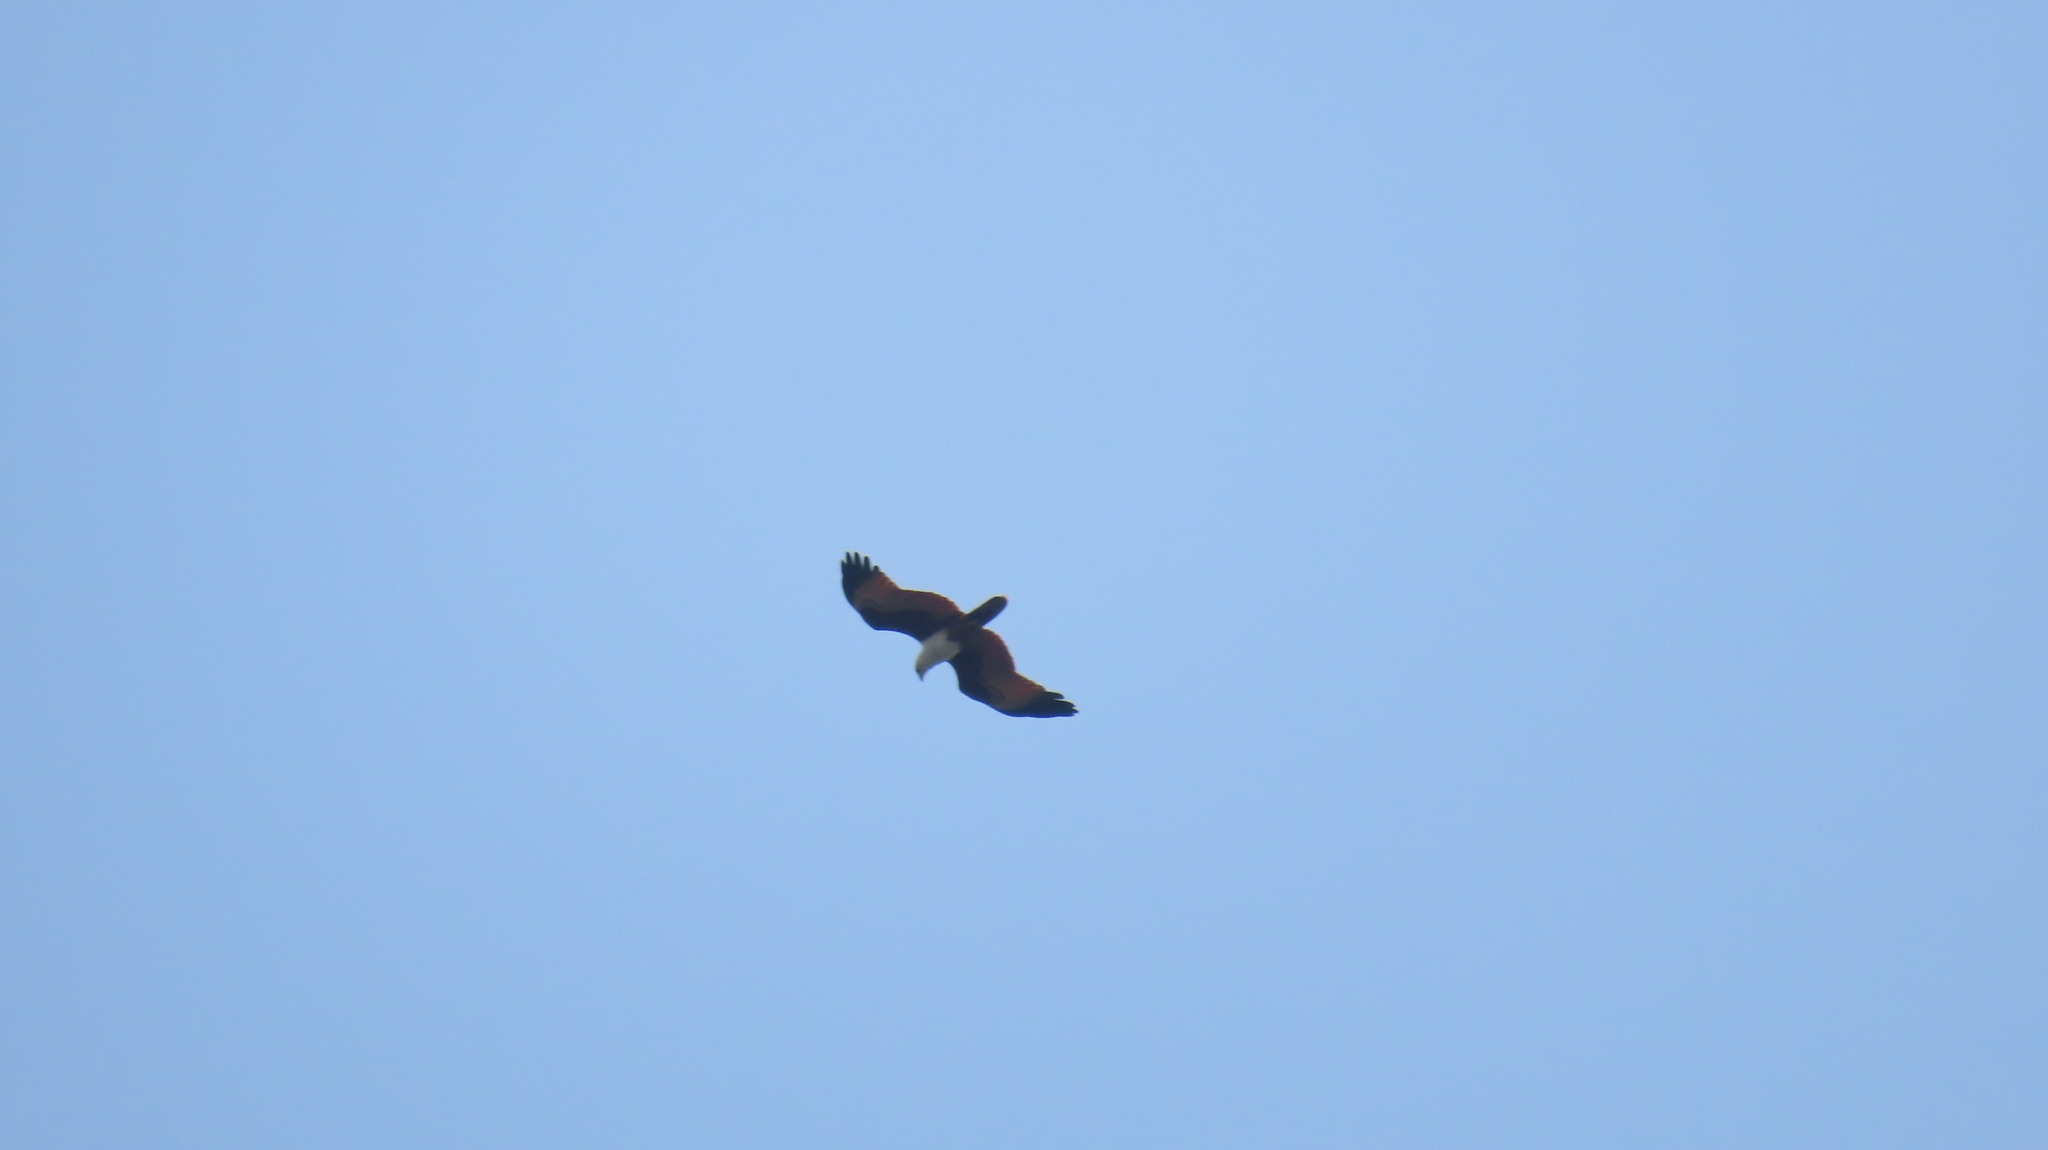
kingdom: Animalia
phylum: Chordata
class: Aves
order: Accipitriformes
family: Accipitridae
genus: Haliastur
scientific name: Haliastur indus
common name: Brahminy kite
